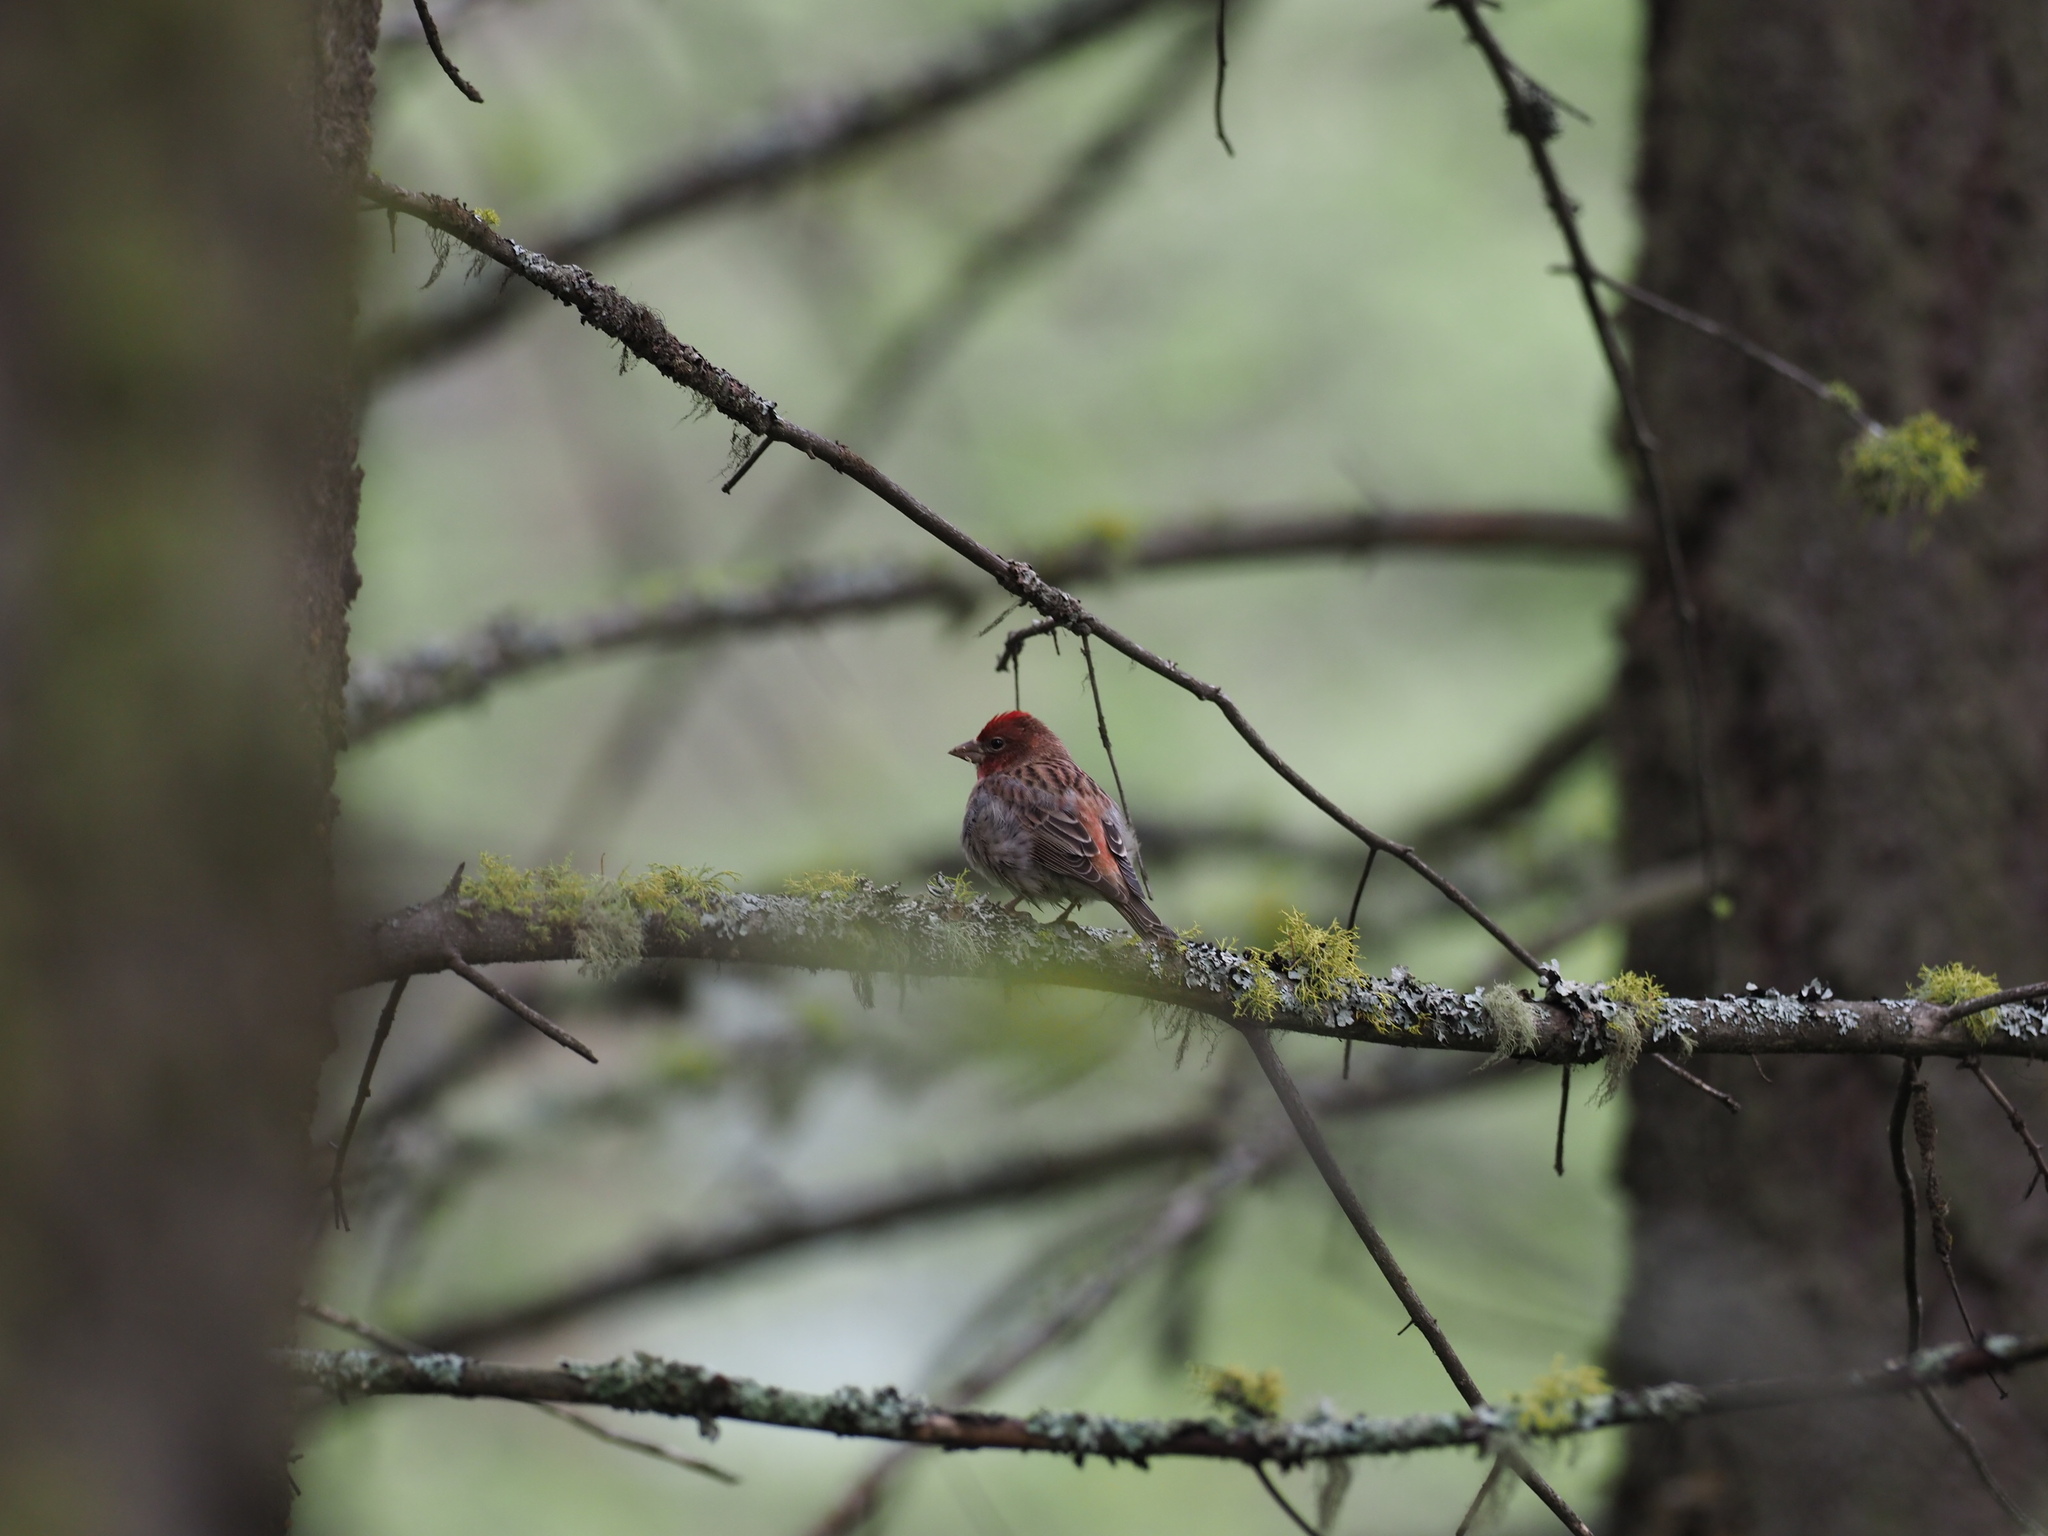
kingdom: Animalia
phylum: Chordata
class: Aves
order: Passeriformes
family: Fringillidae
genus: Haemorhous
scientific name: Haemorhous cassinii
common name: Cassin's finch
